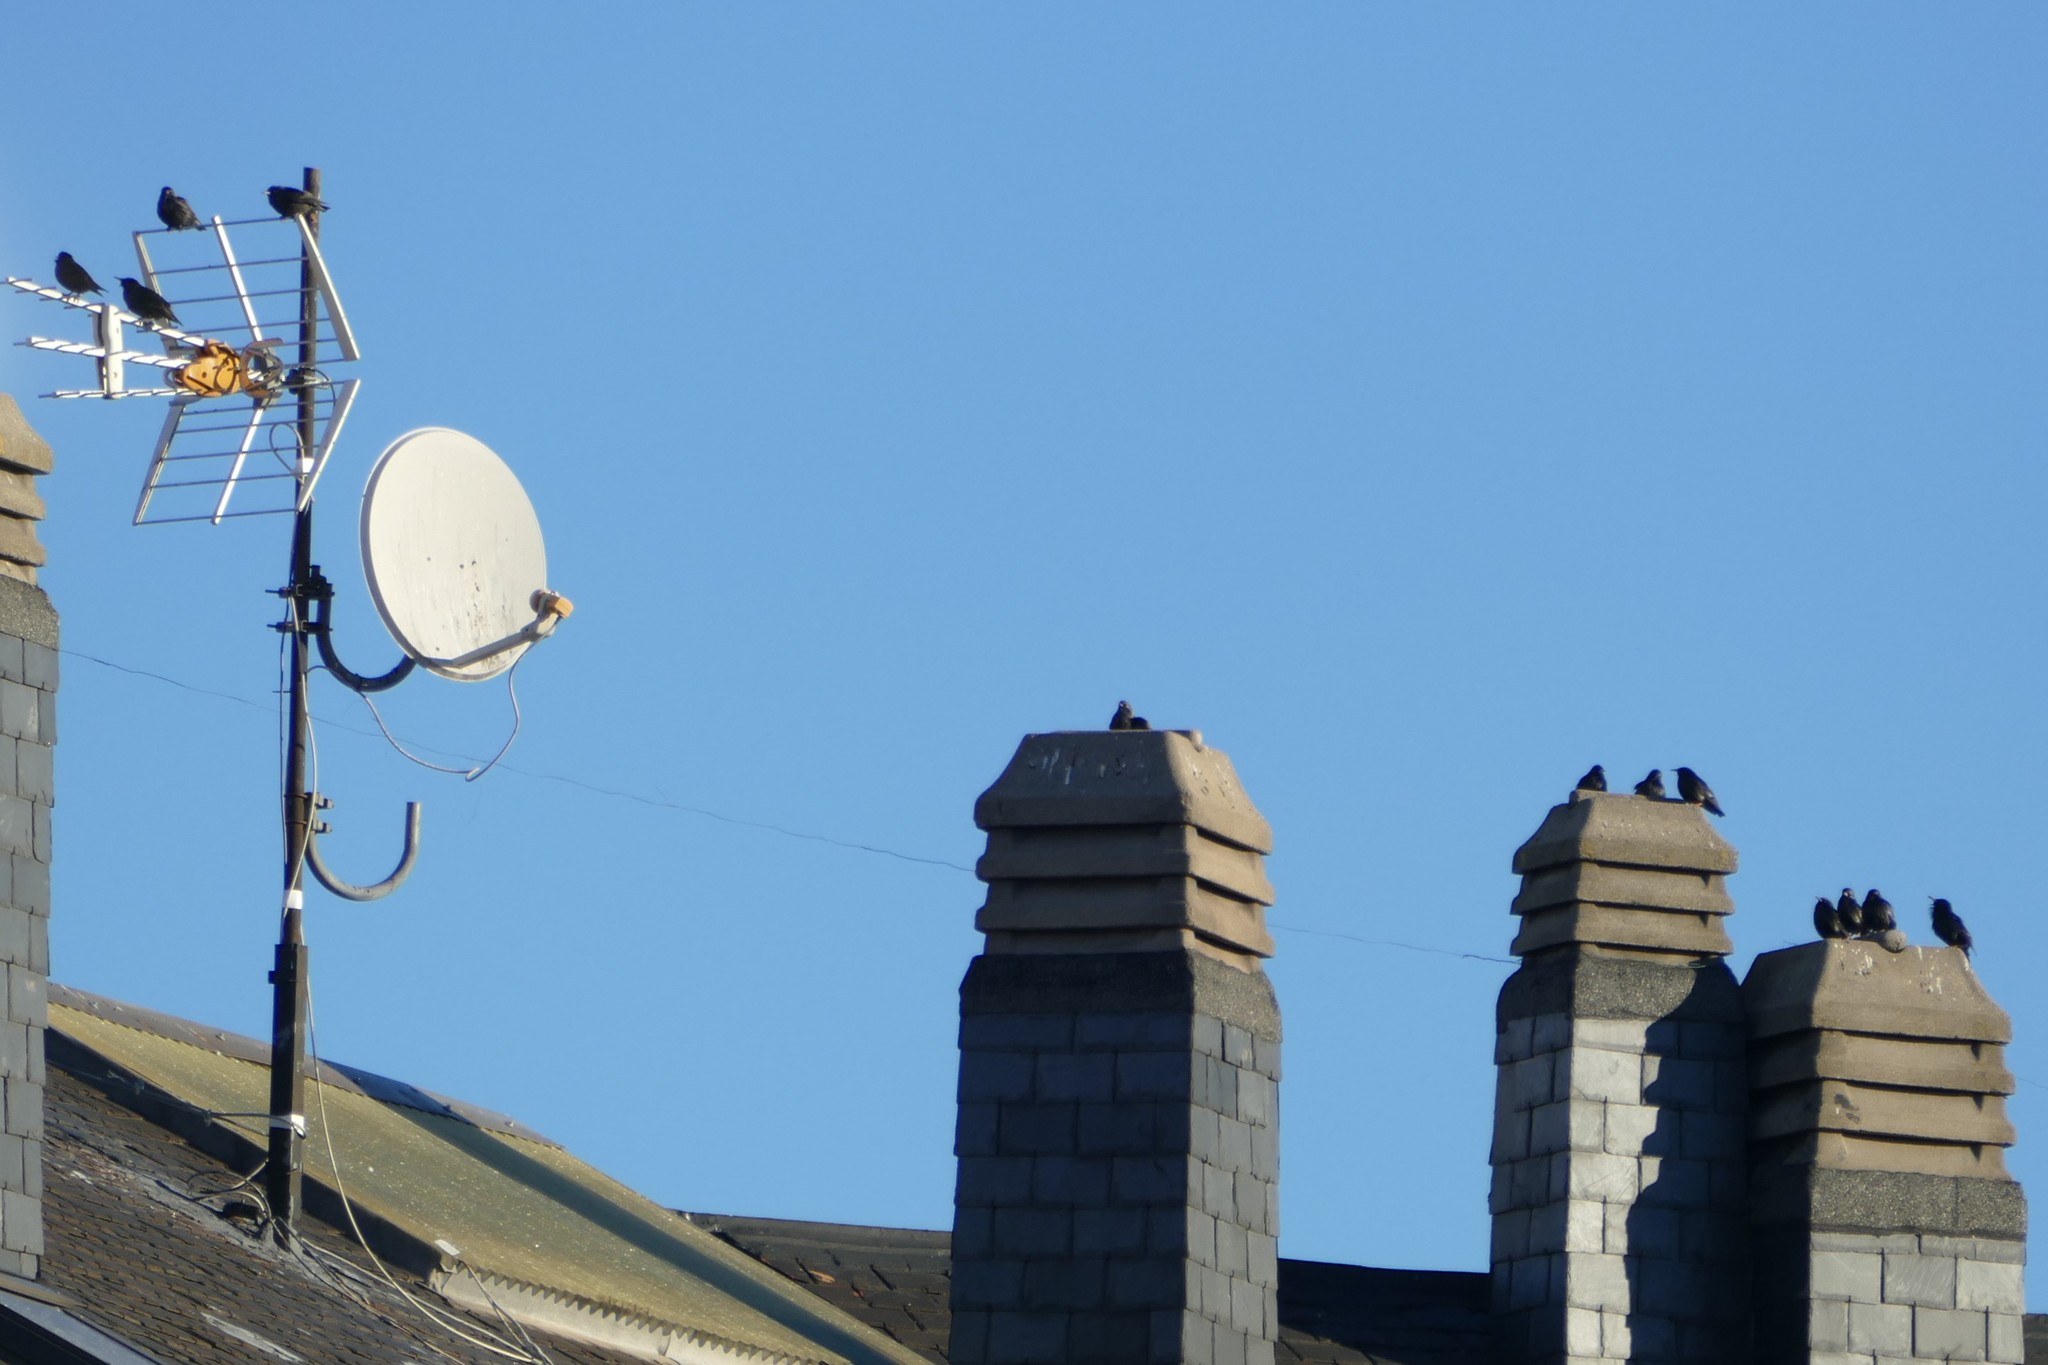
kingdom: Animalia
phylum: Chordata
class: Aves
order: Passeriformes
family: Sturnidae
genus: Sturnus
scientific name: Sturnus unicolor
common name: Spotless starling
